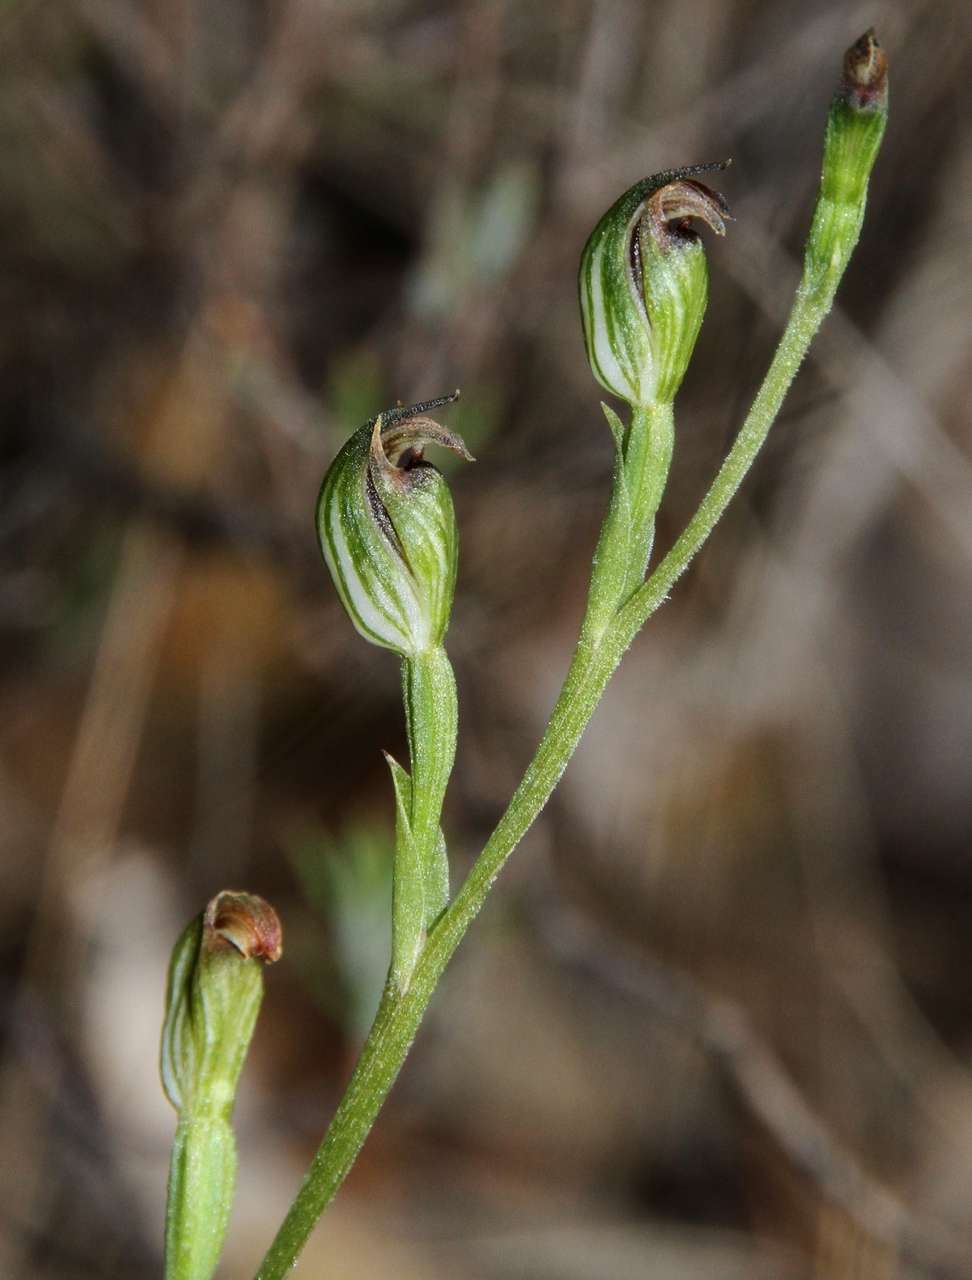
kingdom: Plantae
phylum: Tracheophyta
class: Liliopsida
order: Asparagales
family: Orchidaceae
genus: Pterostylis
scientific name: Pterostylis rubescens
